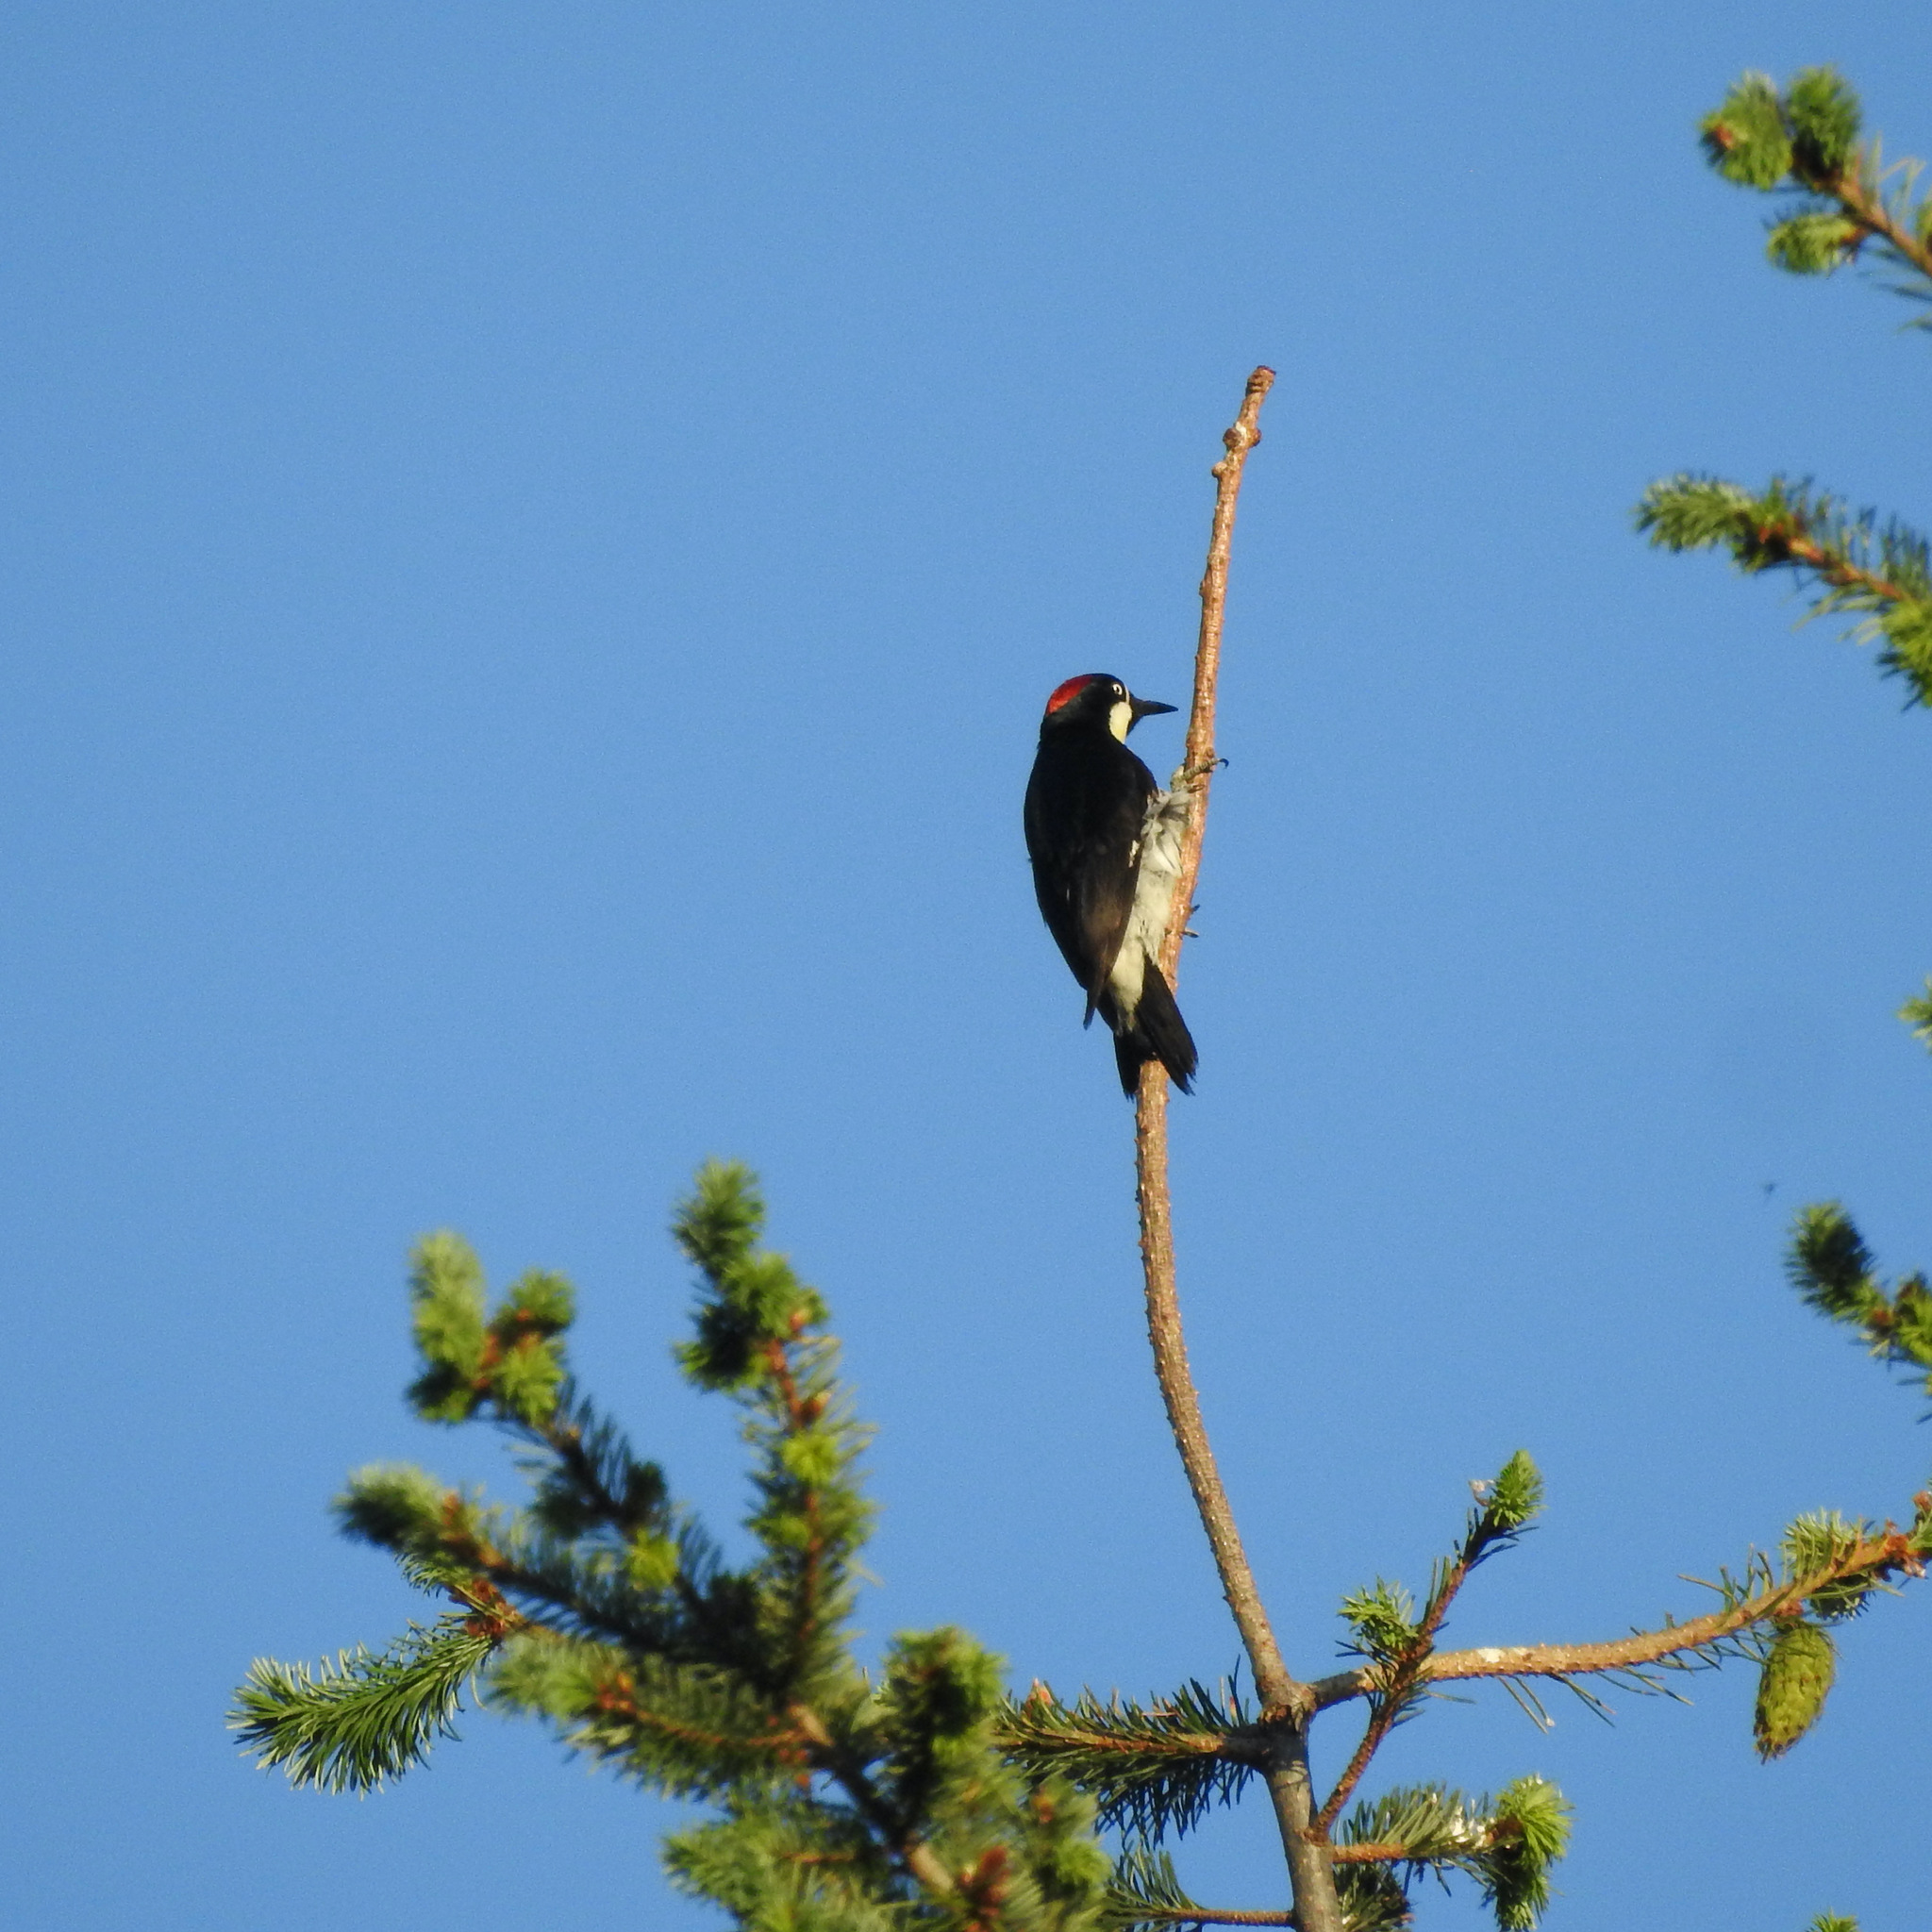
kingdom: Animalia
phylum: Chordata
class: Aves
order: Piciformes
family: Picidae
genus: Melanerpes
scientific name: Melanerpes formicivorus
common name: Acorn woodpecker
